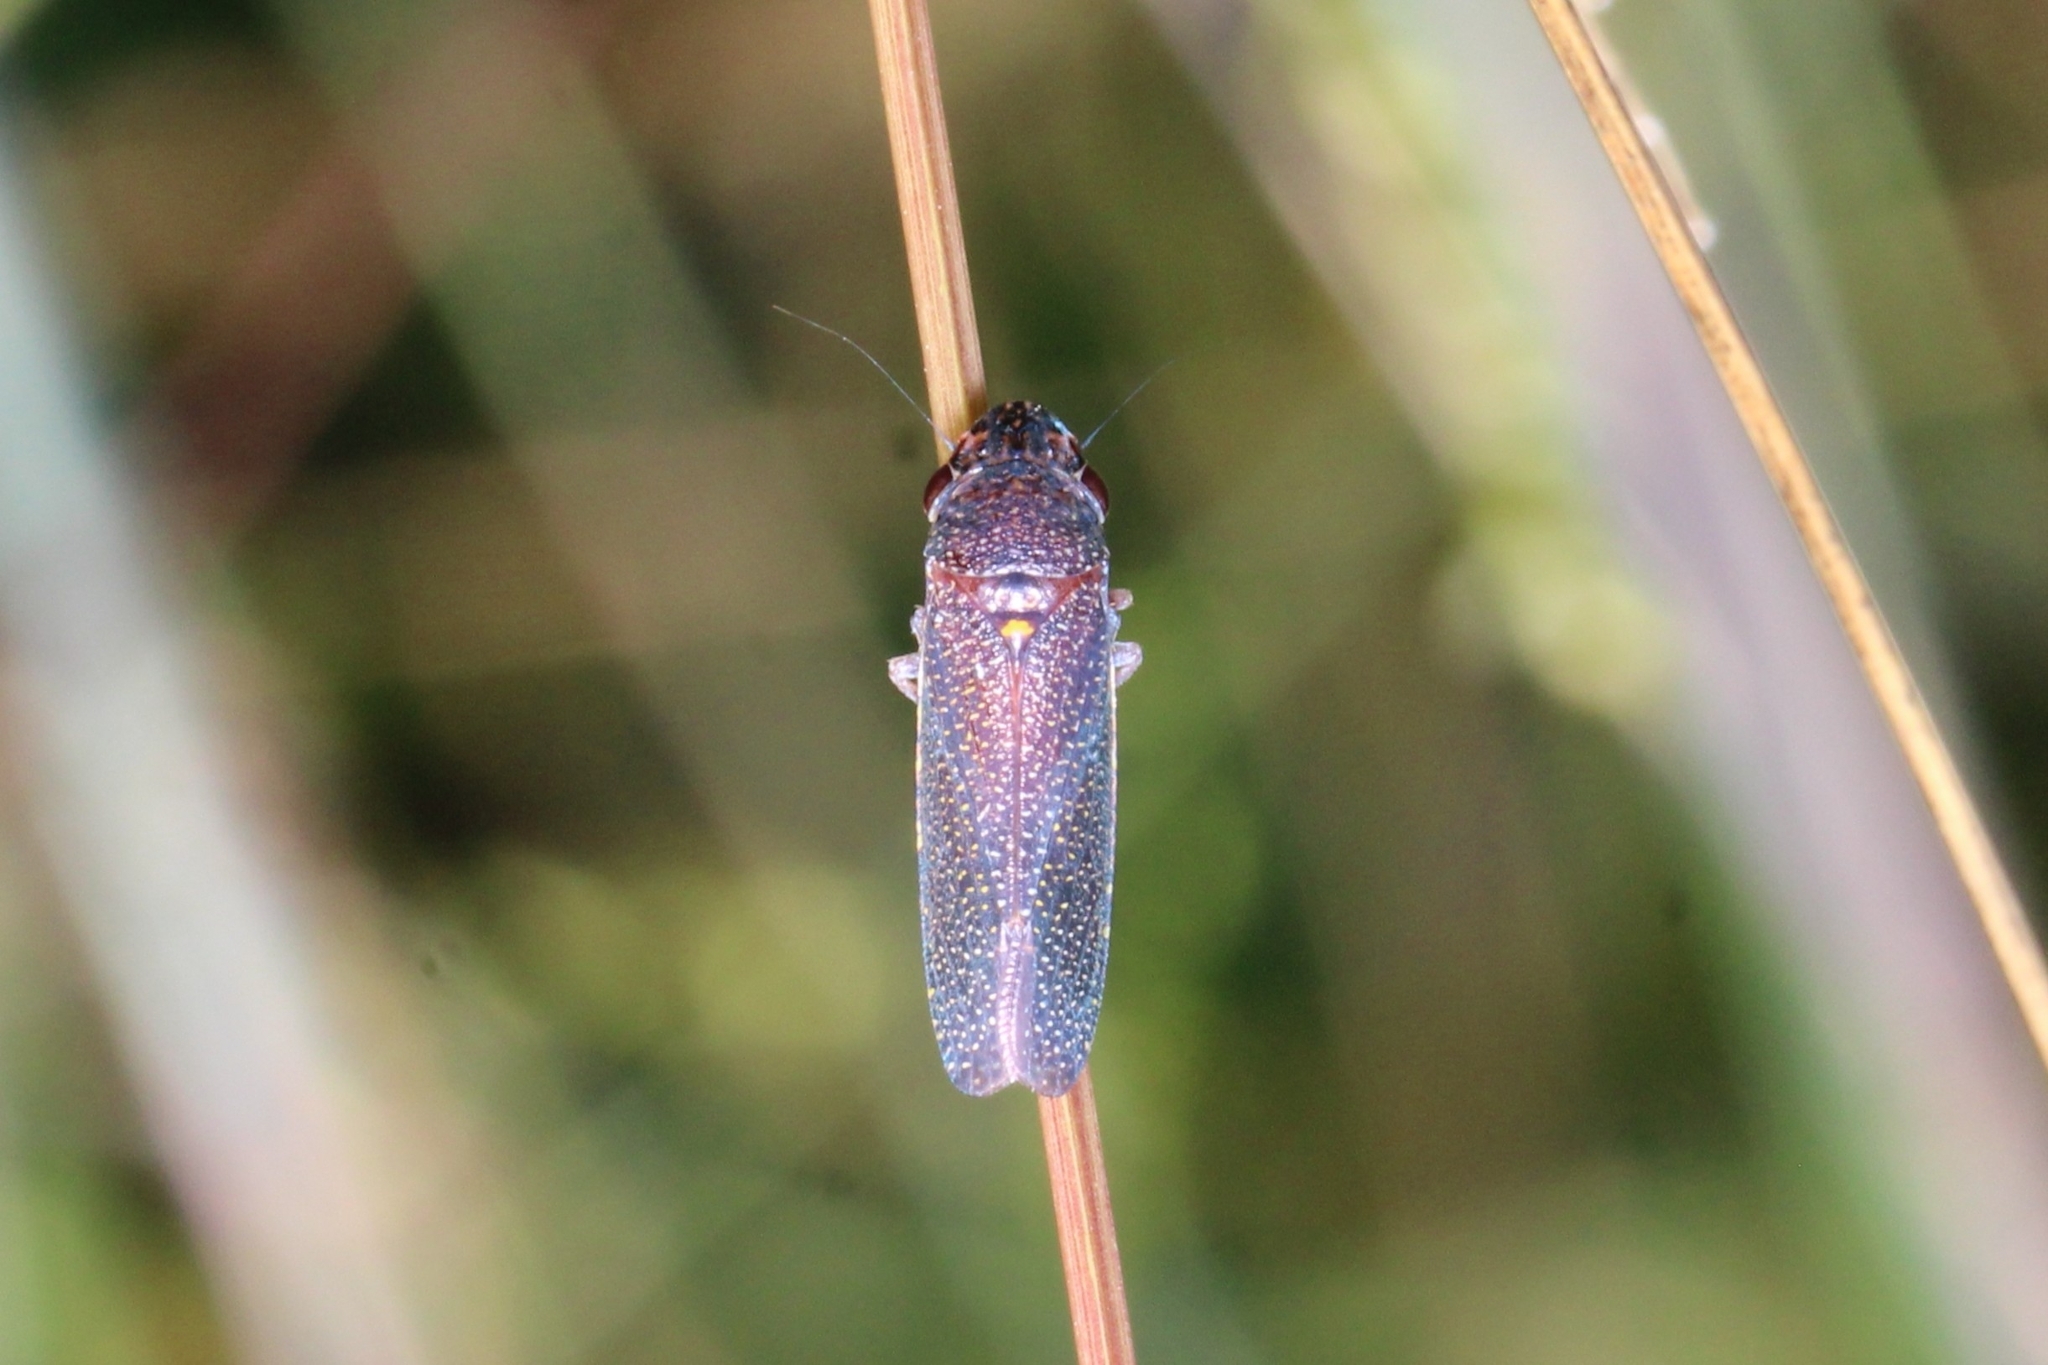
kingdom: Animalia
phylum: Arthropoda
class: Insecta
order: Hemiptera
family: Cicadellidae
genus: Paraulacizes
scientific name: Paraulacizes irrorata
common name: Speckled sharpshooter
